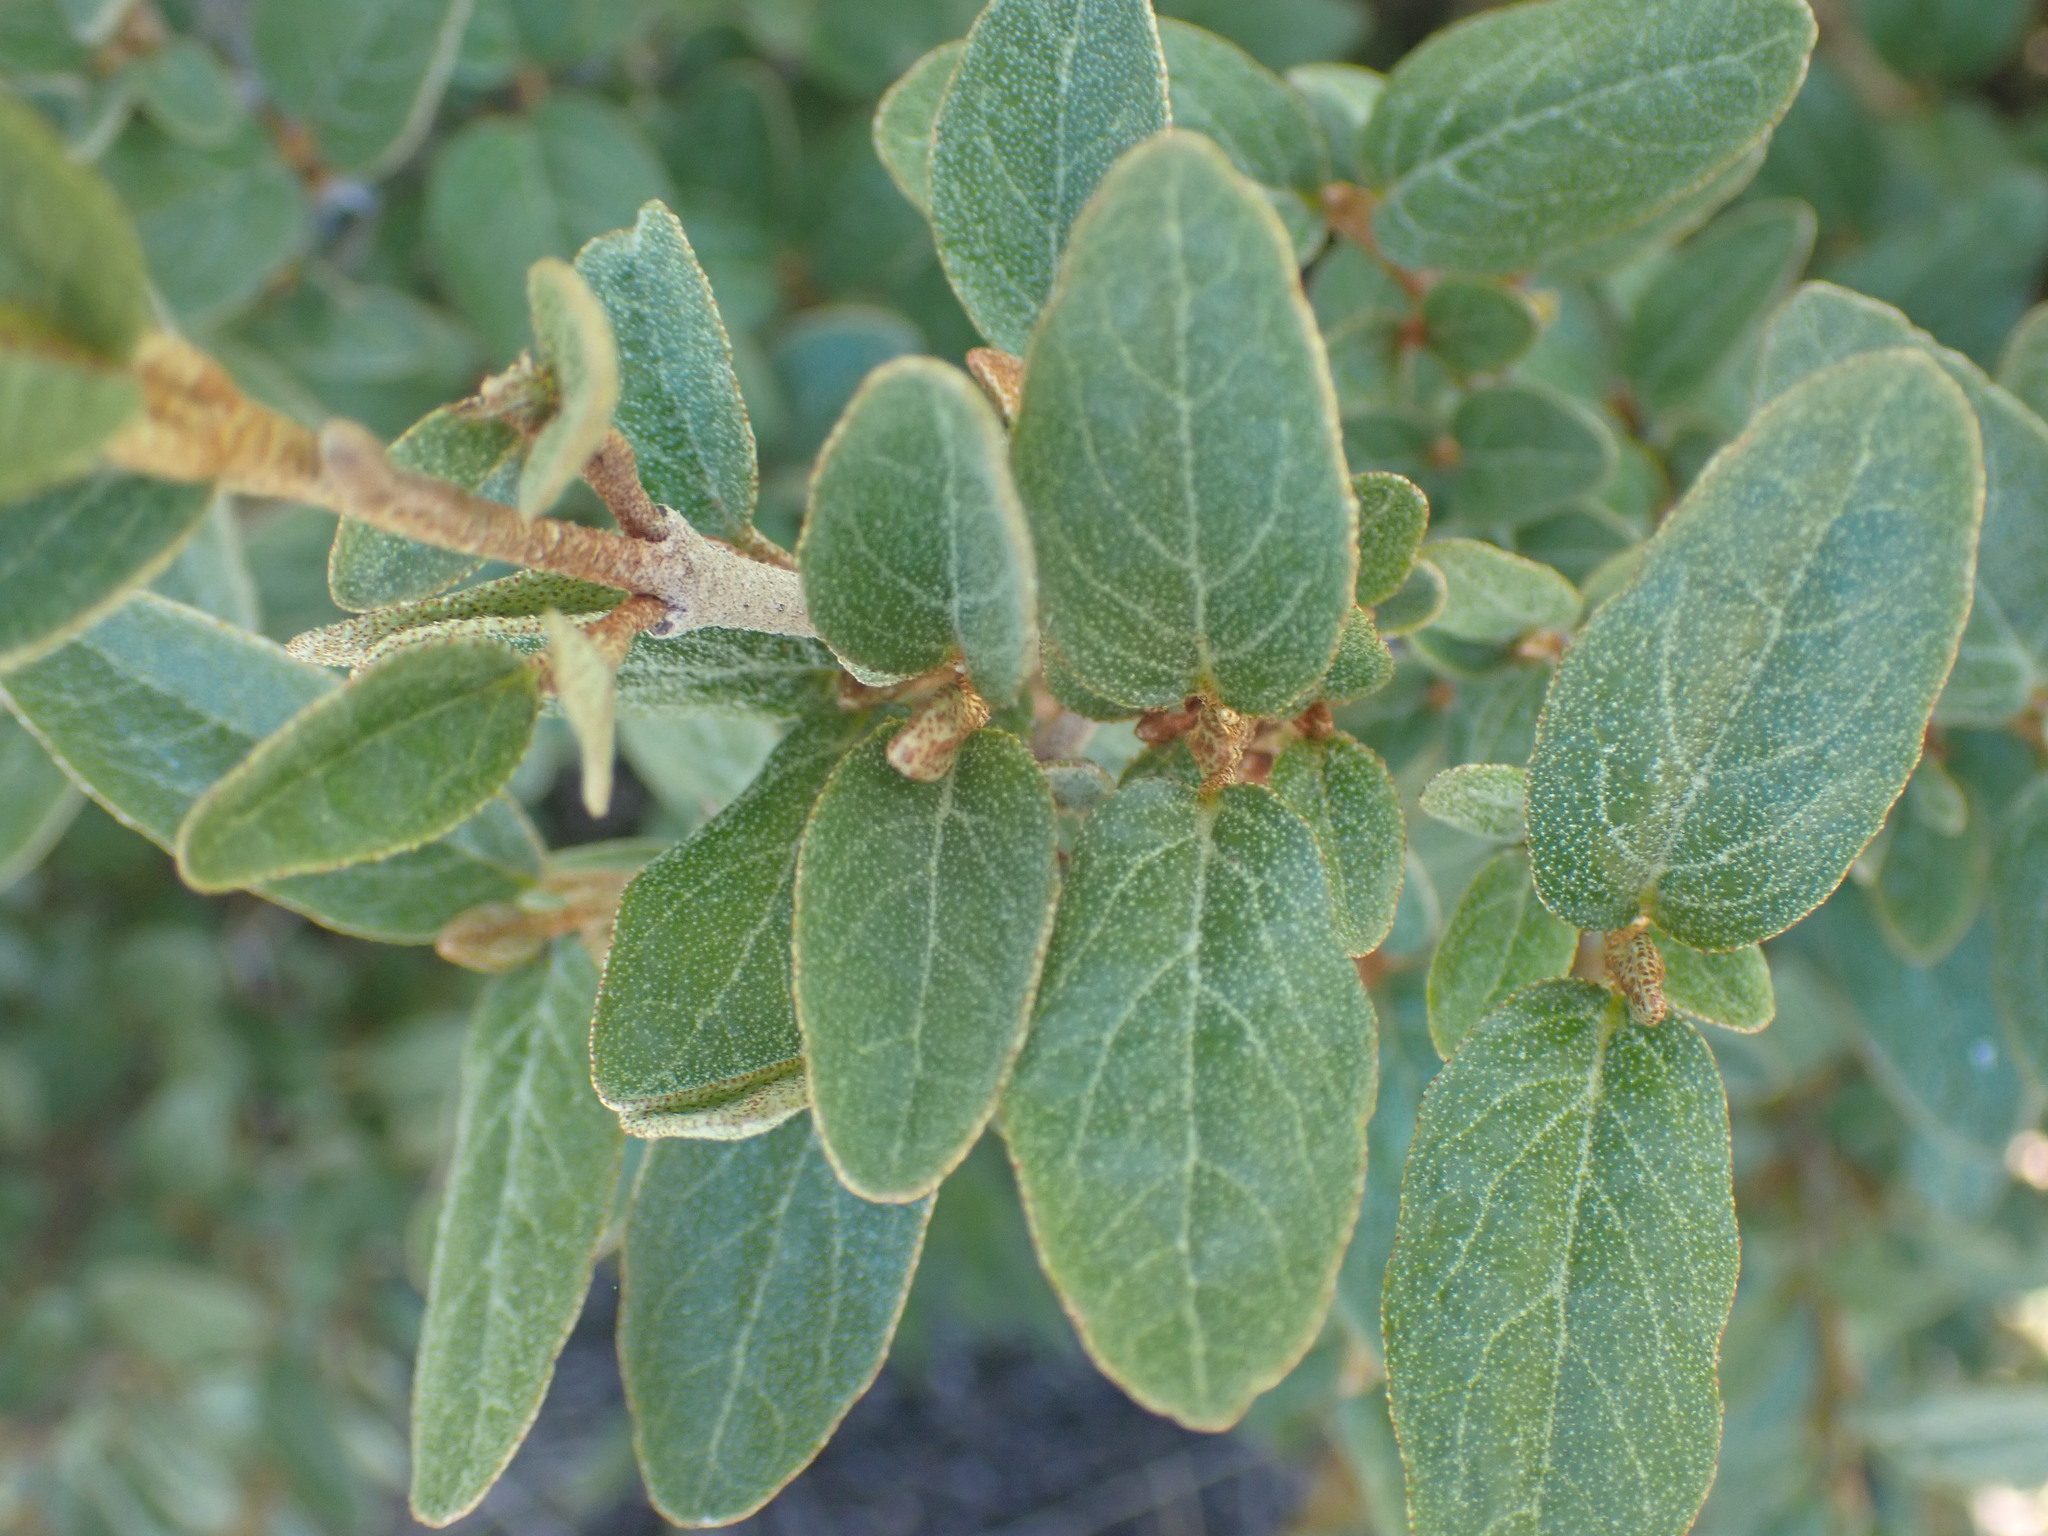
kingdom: Plantae
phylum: Tracheophyta
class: Magnoliopsida
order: Rosales
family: Elaeagnaceae
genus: Shepherdia
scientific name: Shepherdia canadensis
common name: Soapberry
